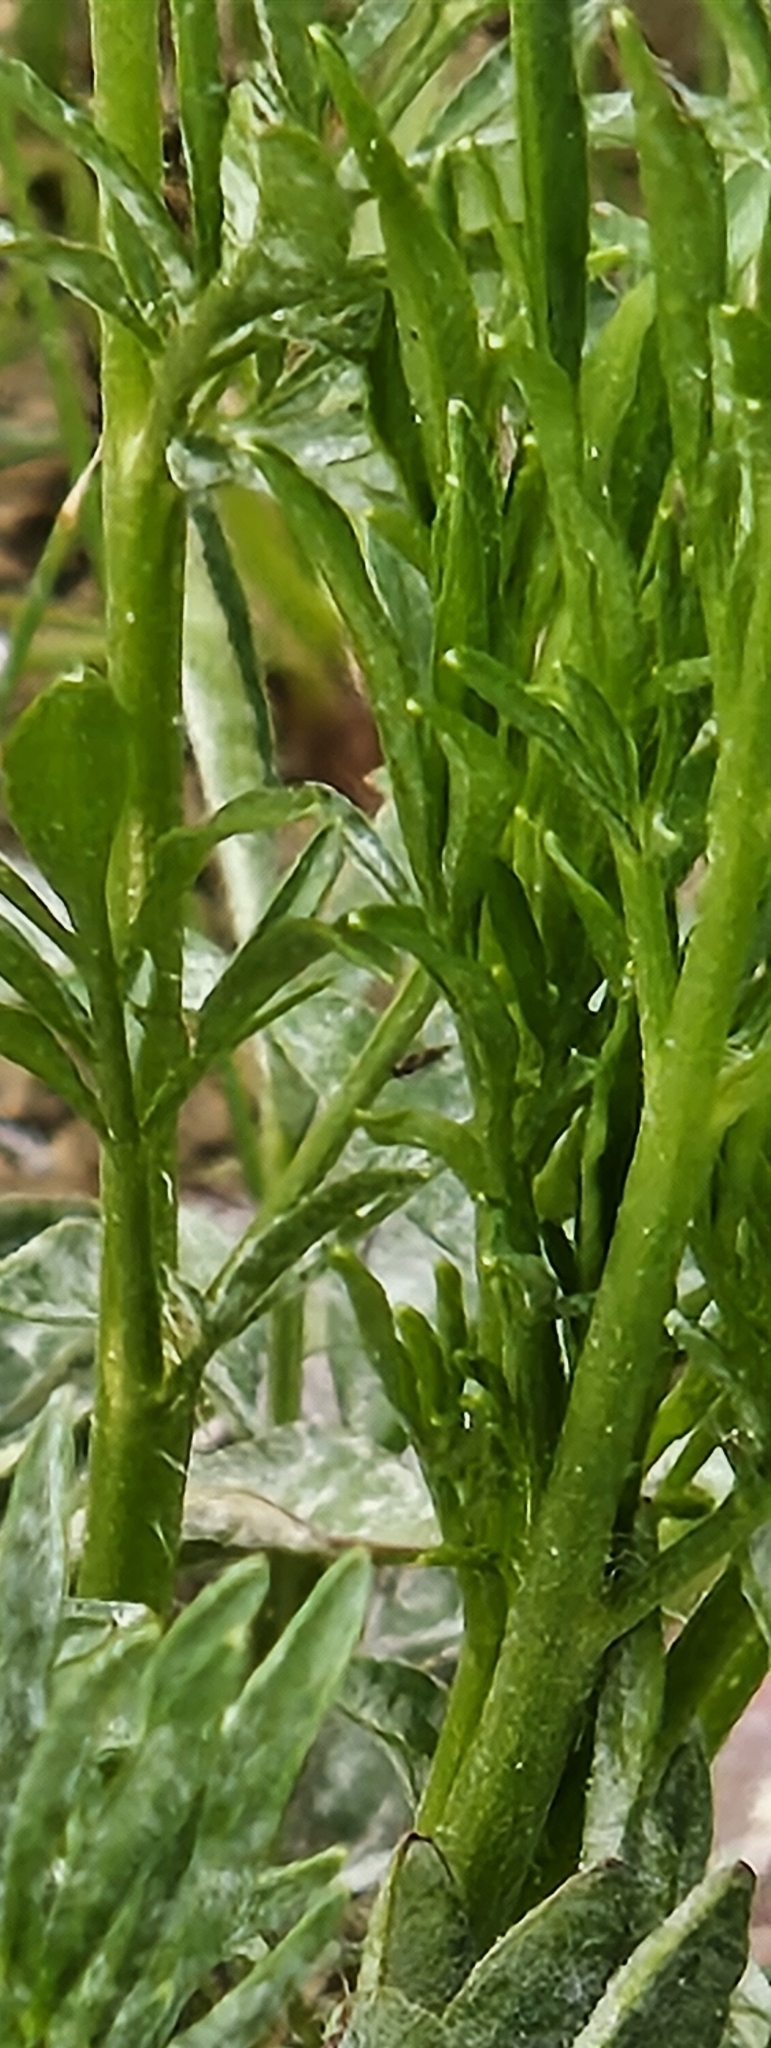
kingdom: Plantae
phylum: Tracheophyta
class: Magnoliopsida
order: Asterales
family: Asteraceae
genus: Facelis
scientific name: Facelis retusa
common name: Annual trampweed
